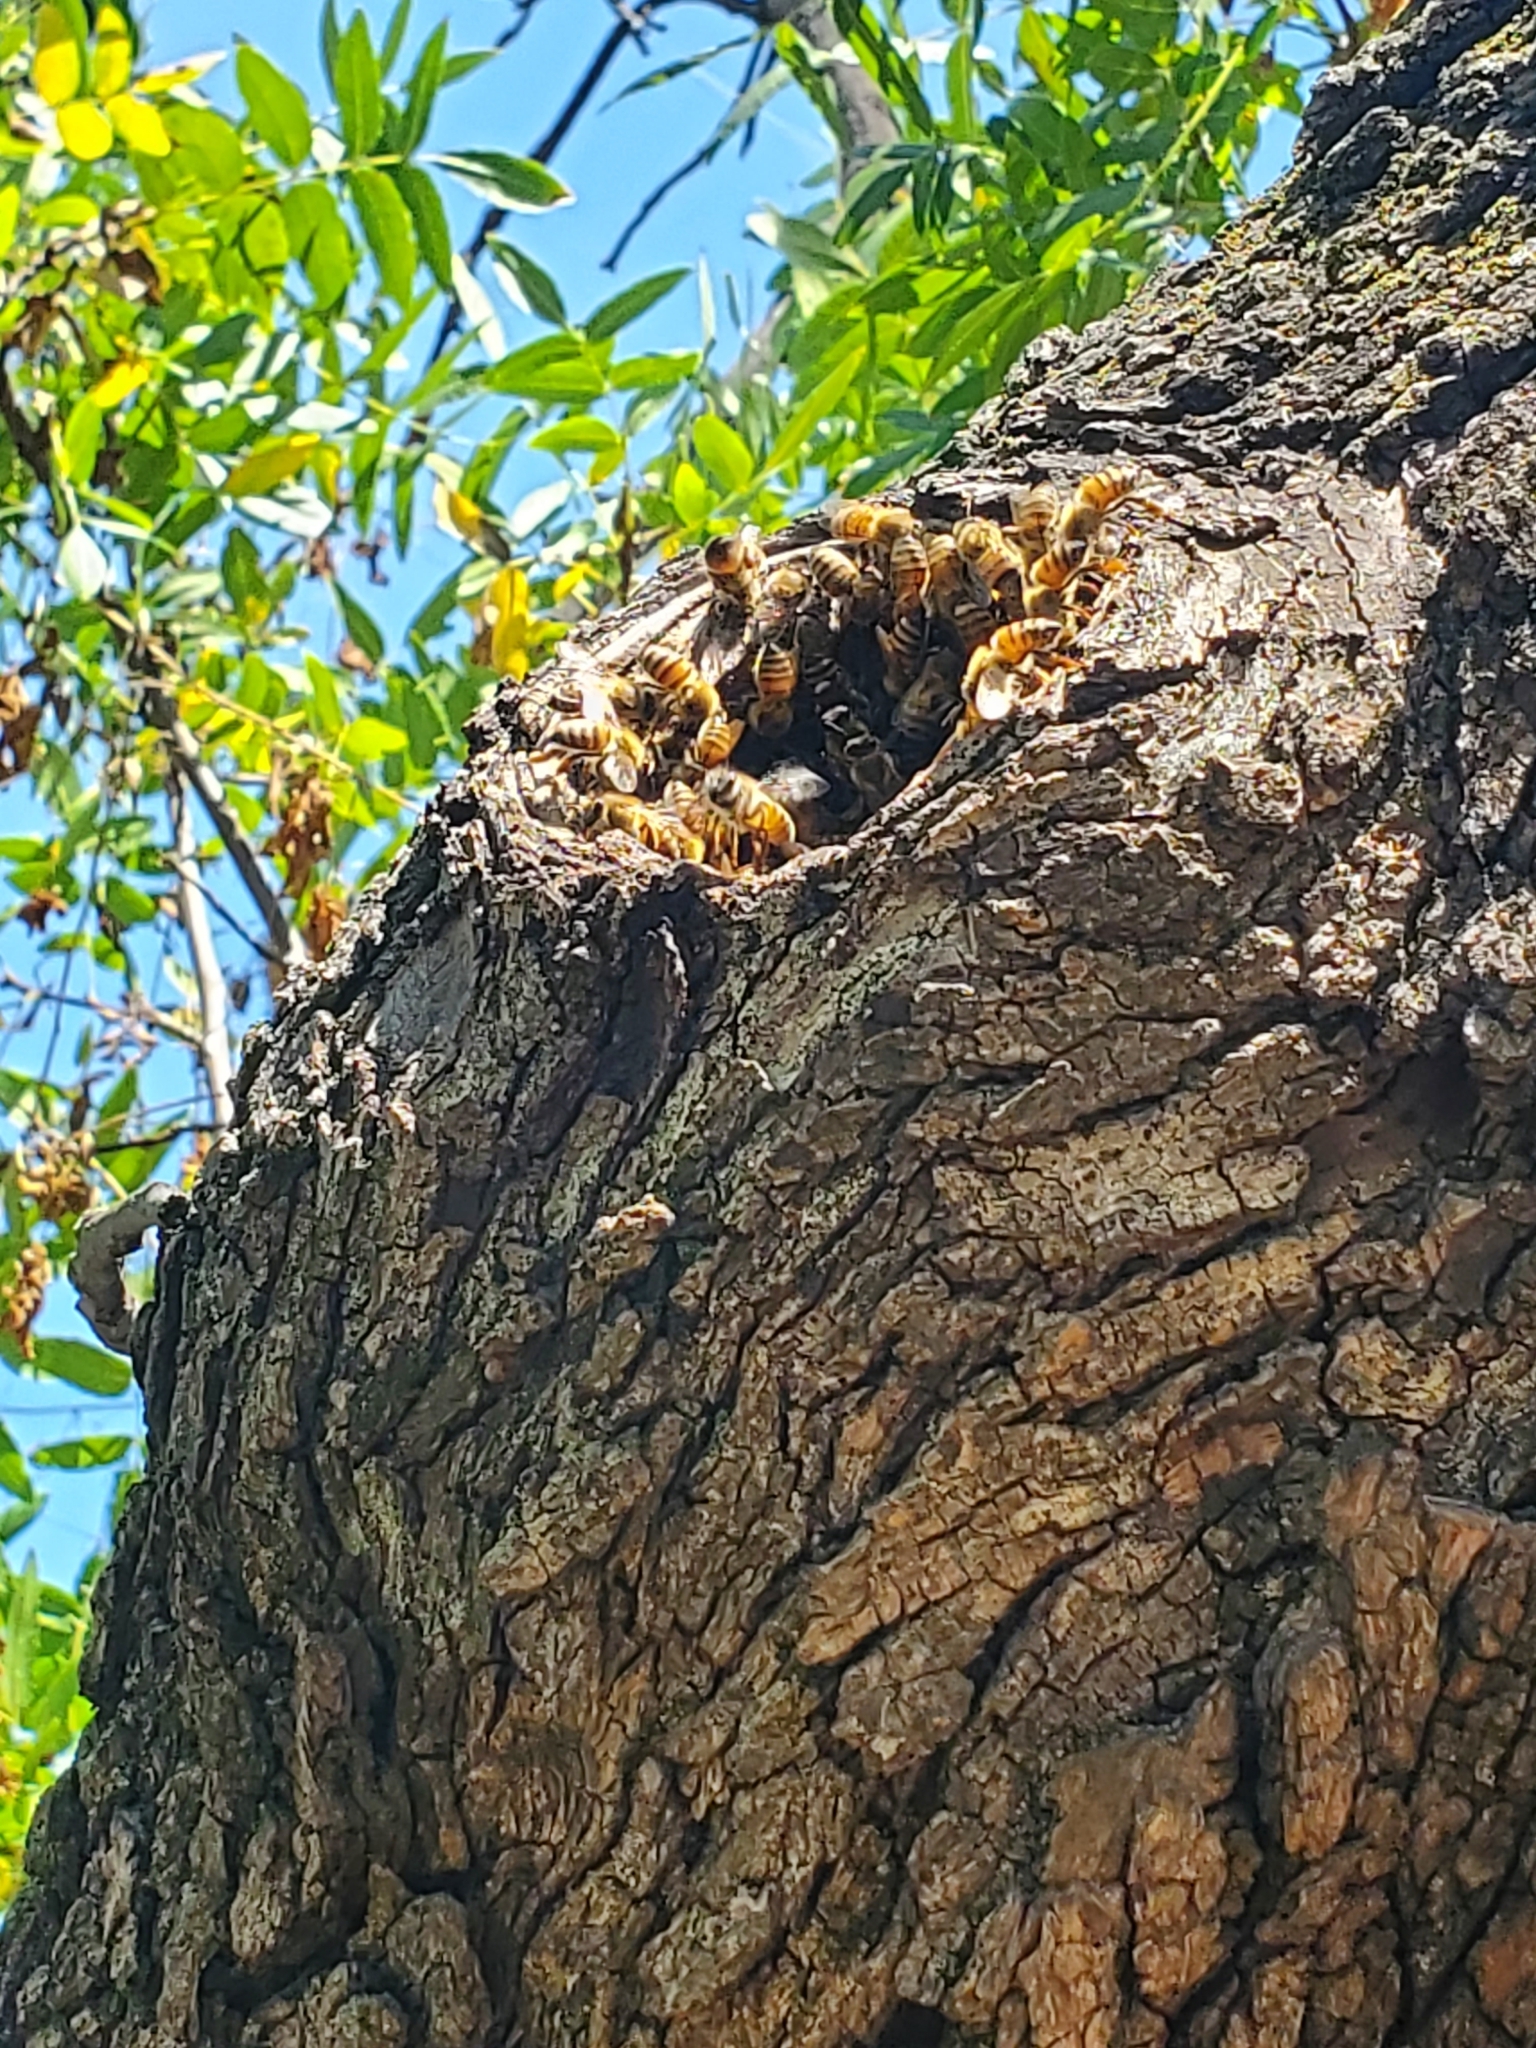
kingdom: Animalia
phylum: Arthropoda
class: Insecta
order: Hymenoptera
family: Apidae
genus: Apis
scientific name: Apis mellifera
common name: Honey bee
